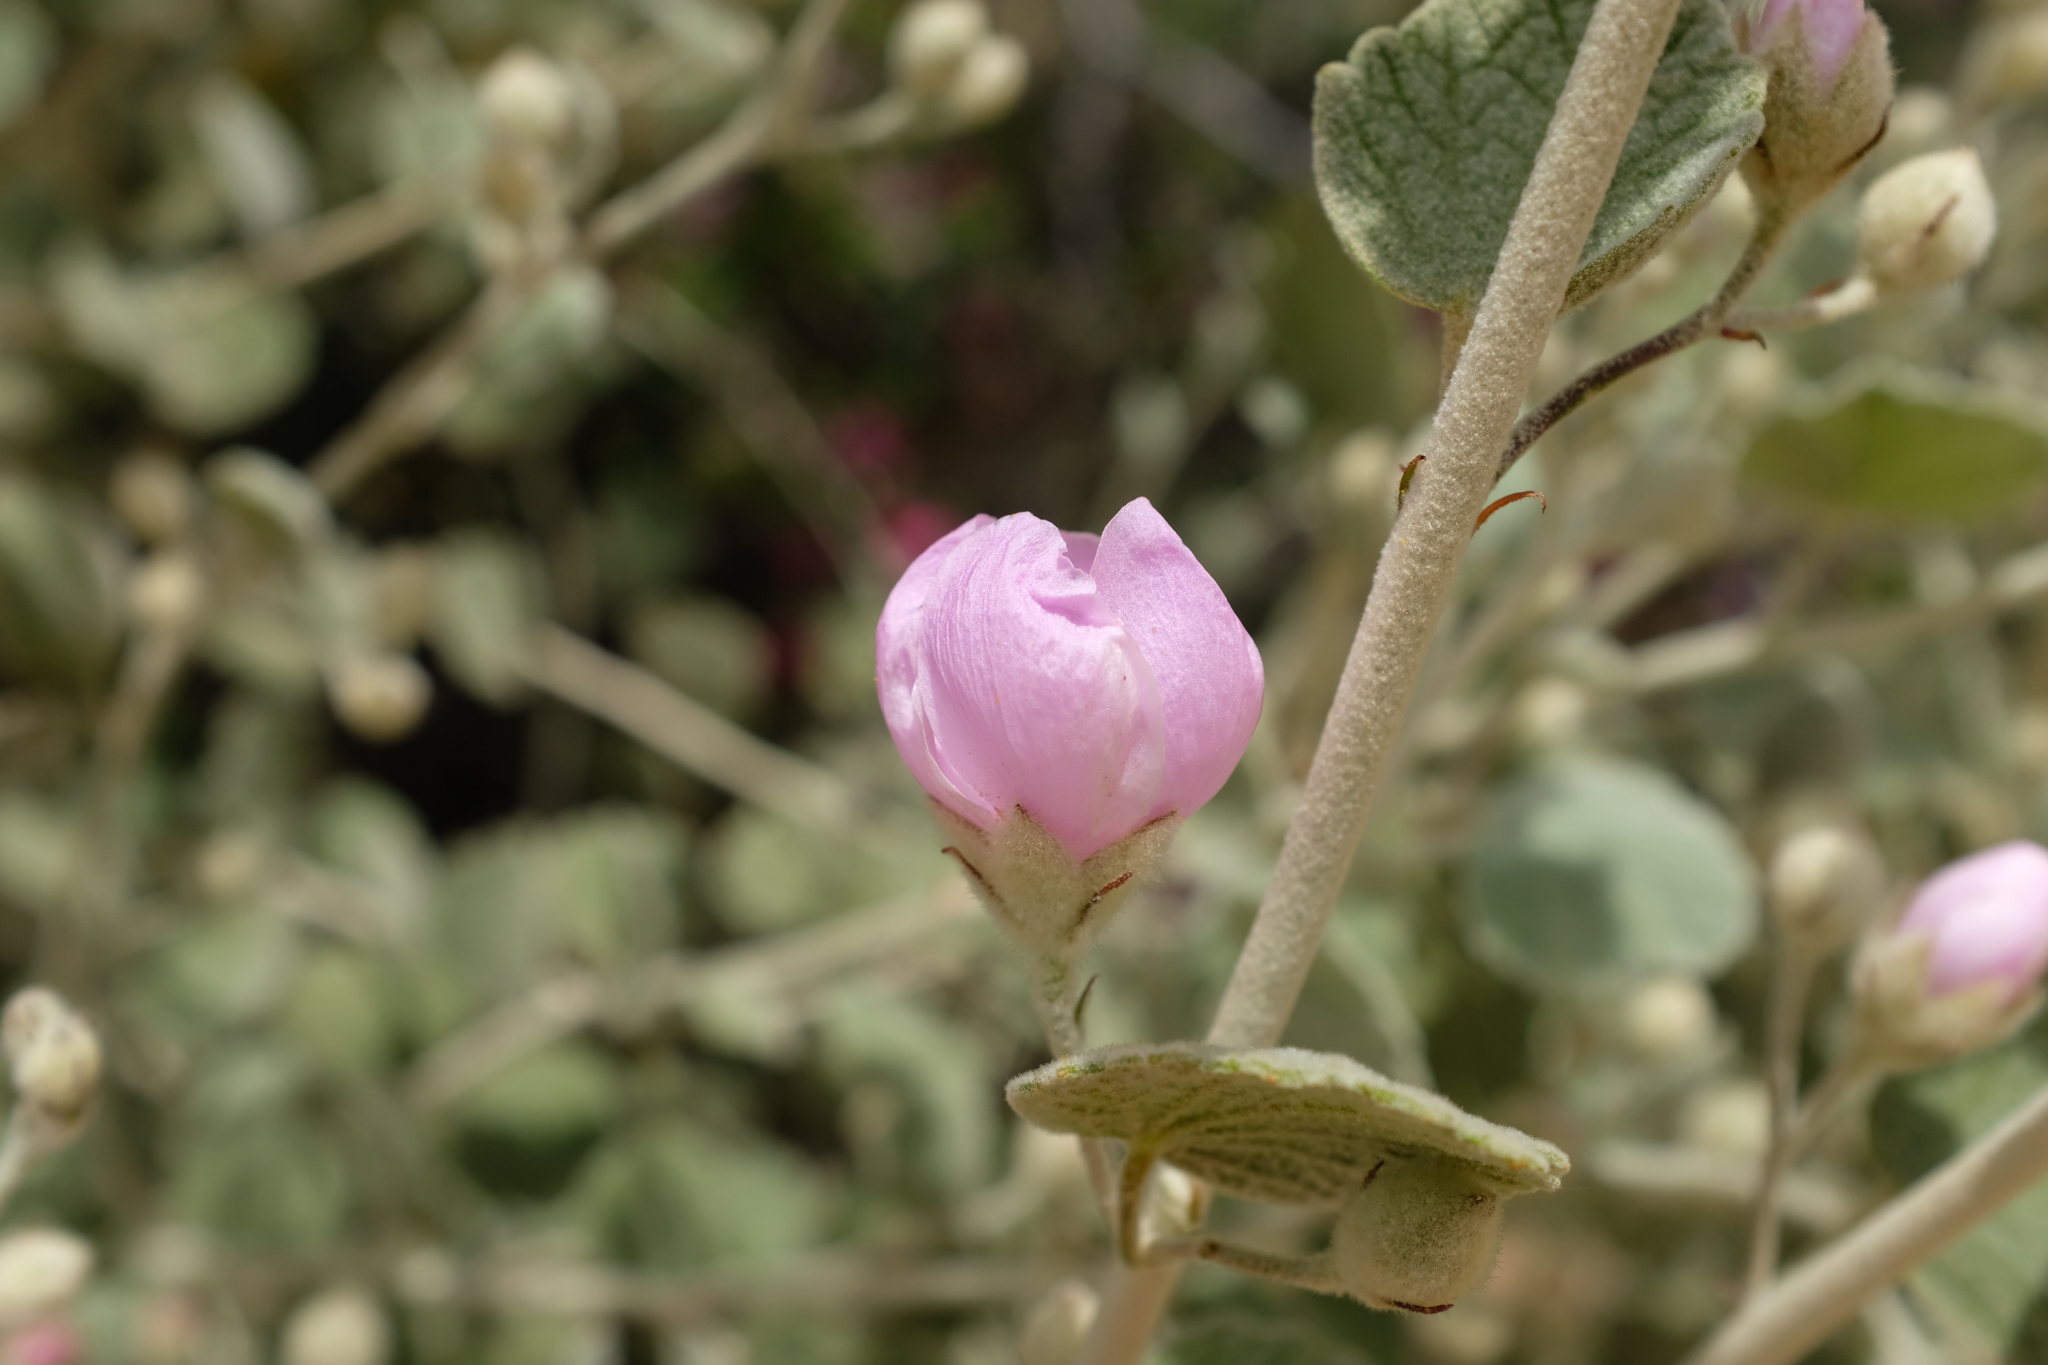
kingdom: Plantae
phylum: Tracheophyta
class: Magnoliopsida
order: Malvales
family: Malvaceae
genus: Malacothamnus
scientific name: Malacothamnus jonesii
